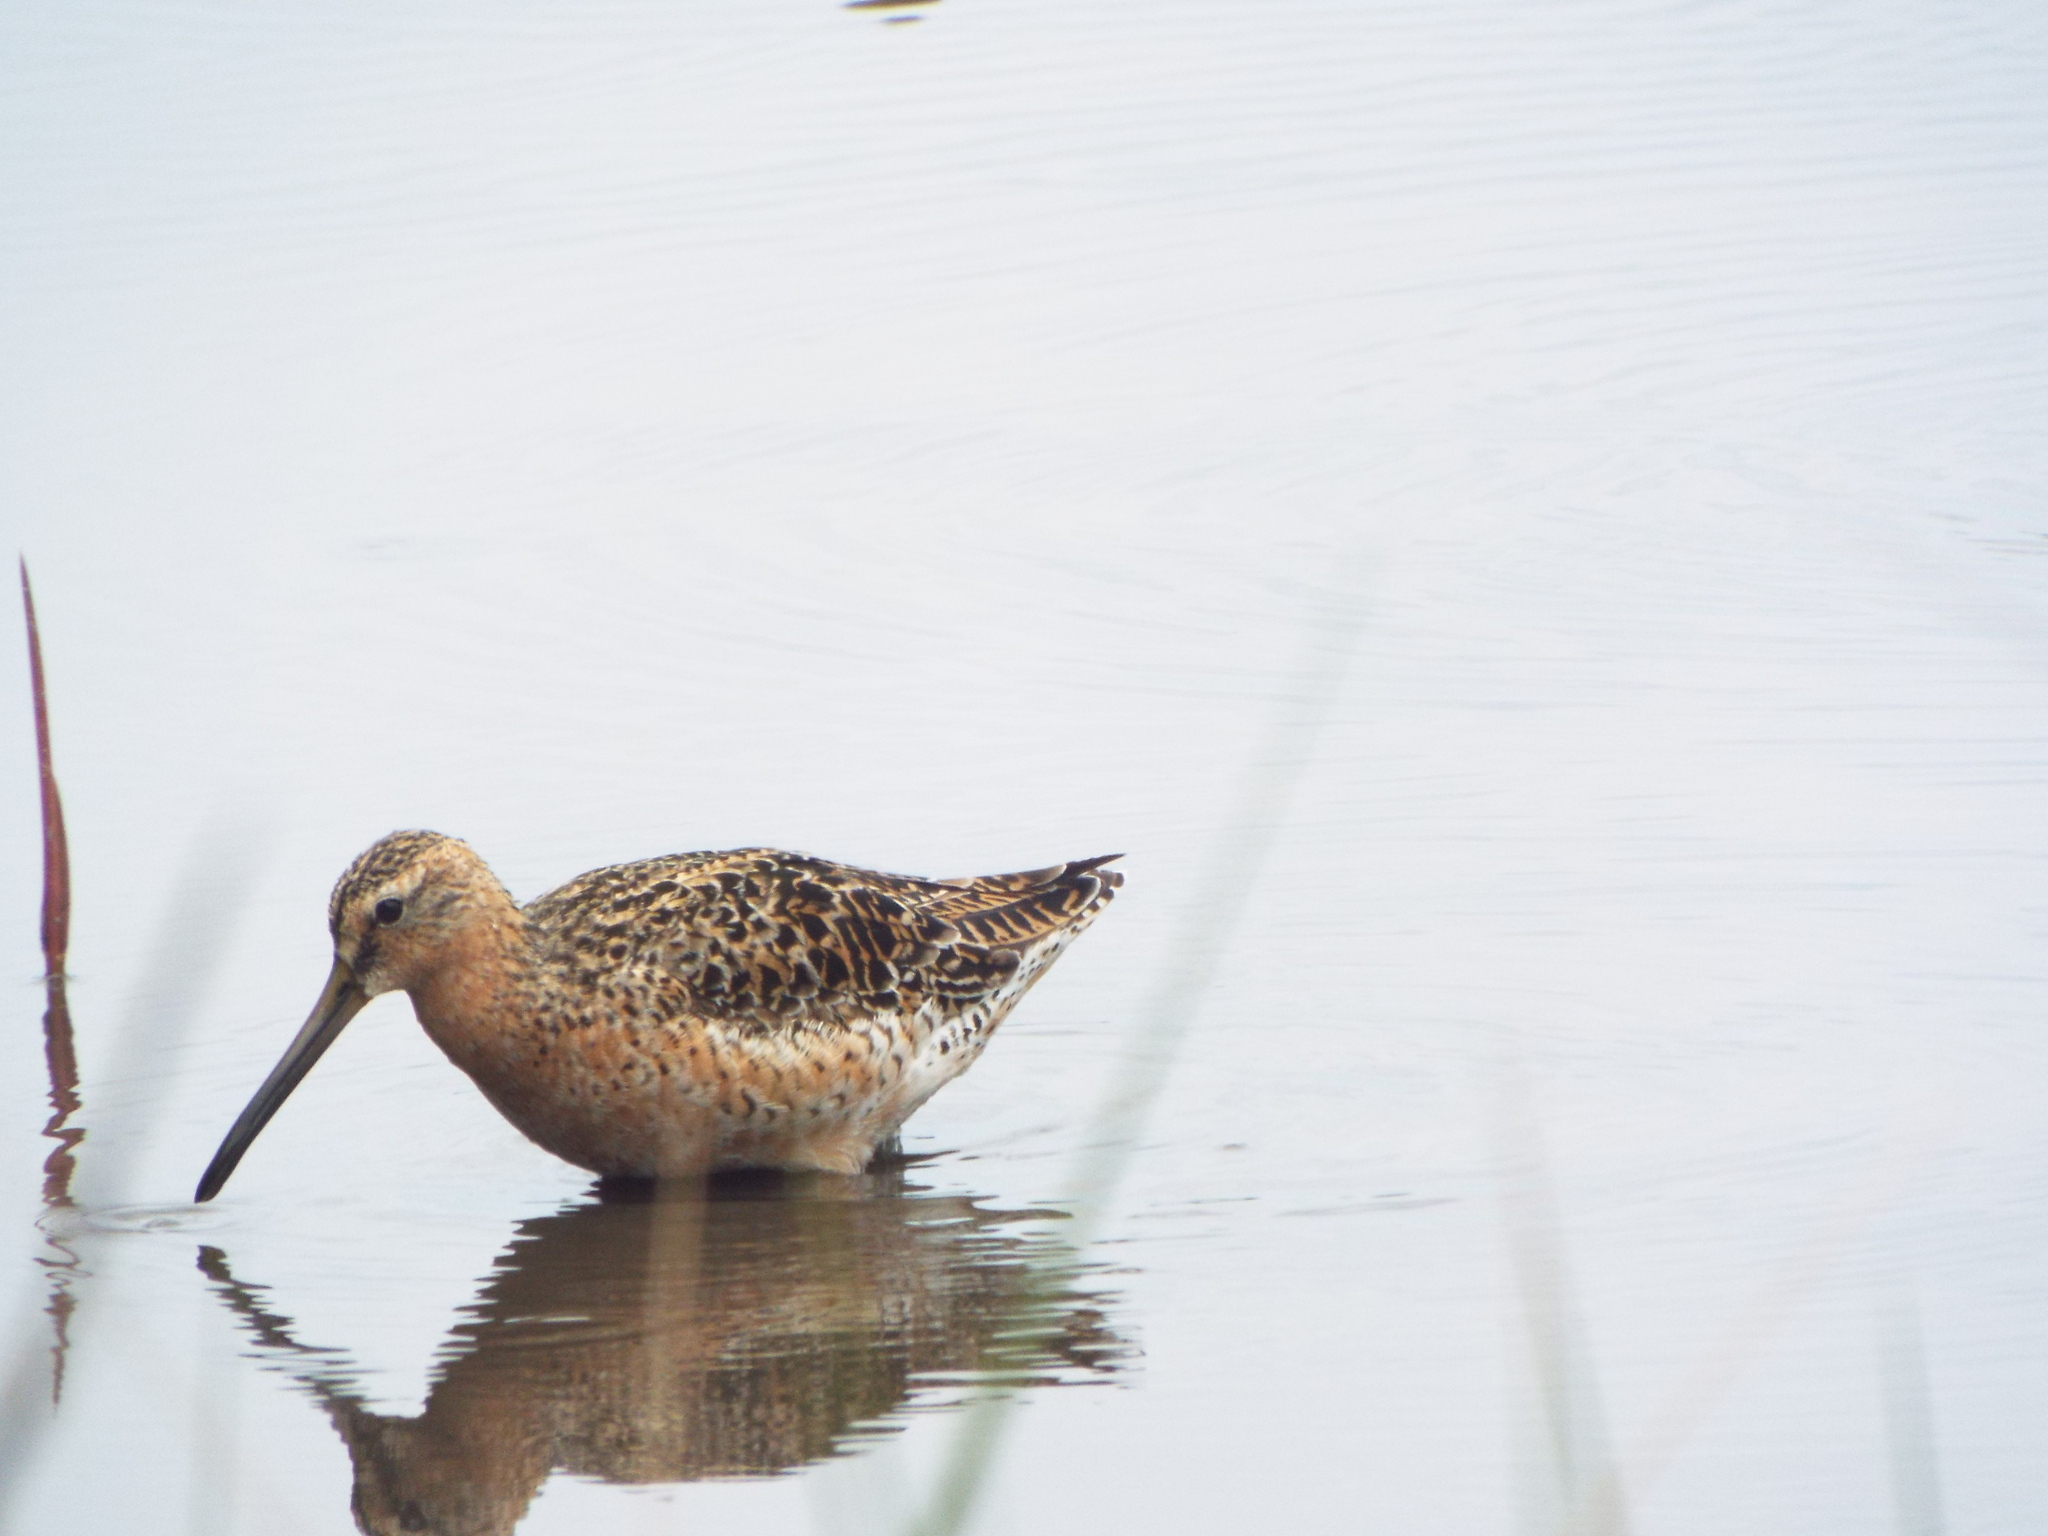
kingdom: Animalia
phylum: Chordata
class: Aves
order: Charadriiformes
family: Scolopacidae
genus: Limnodromus
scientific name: Limnodromus griseus
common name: Short-billed dowitcher
